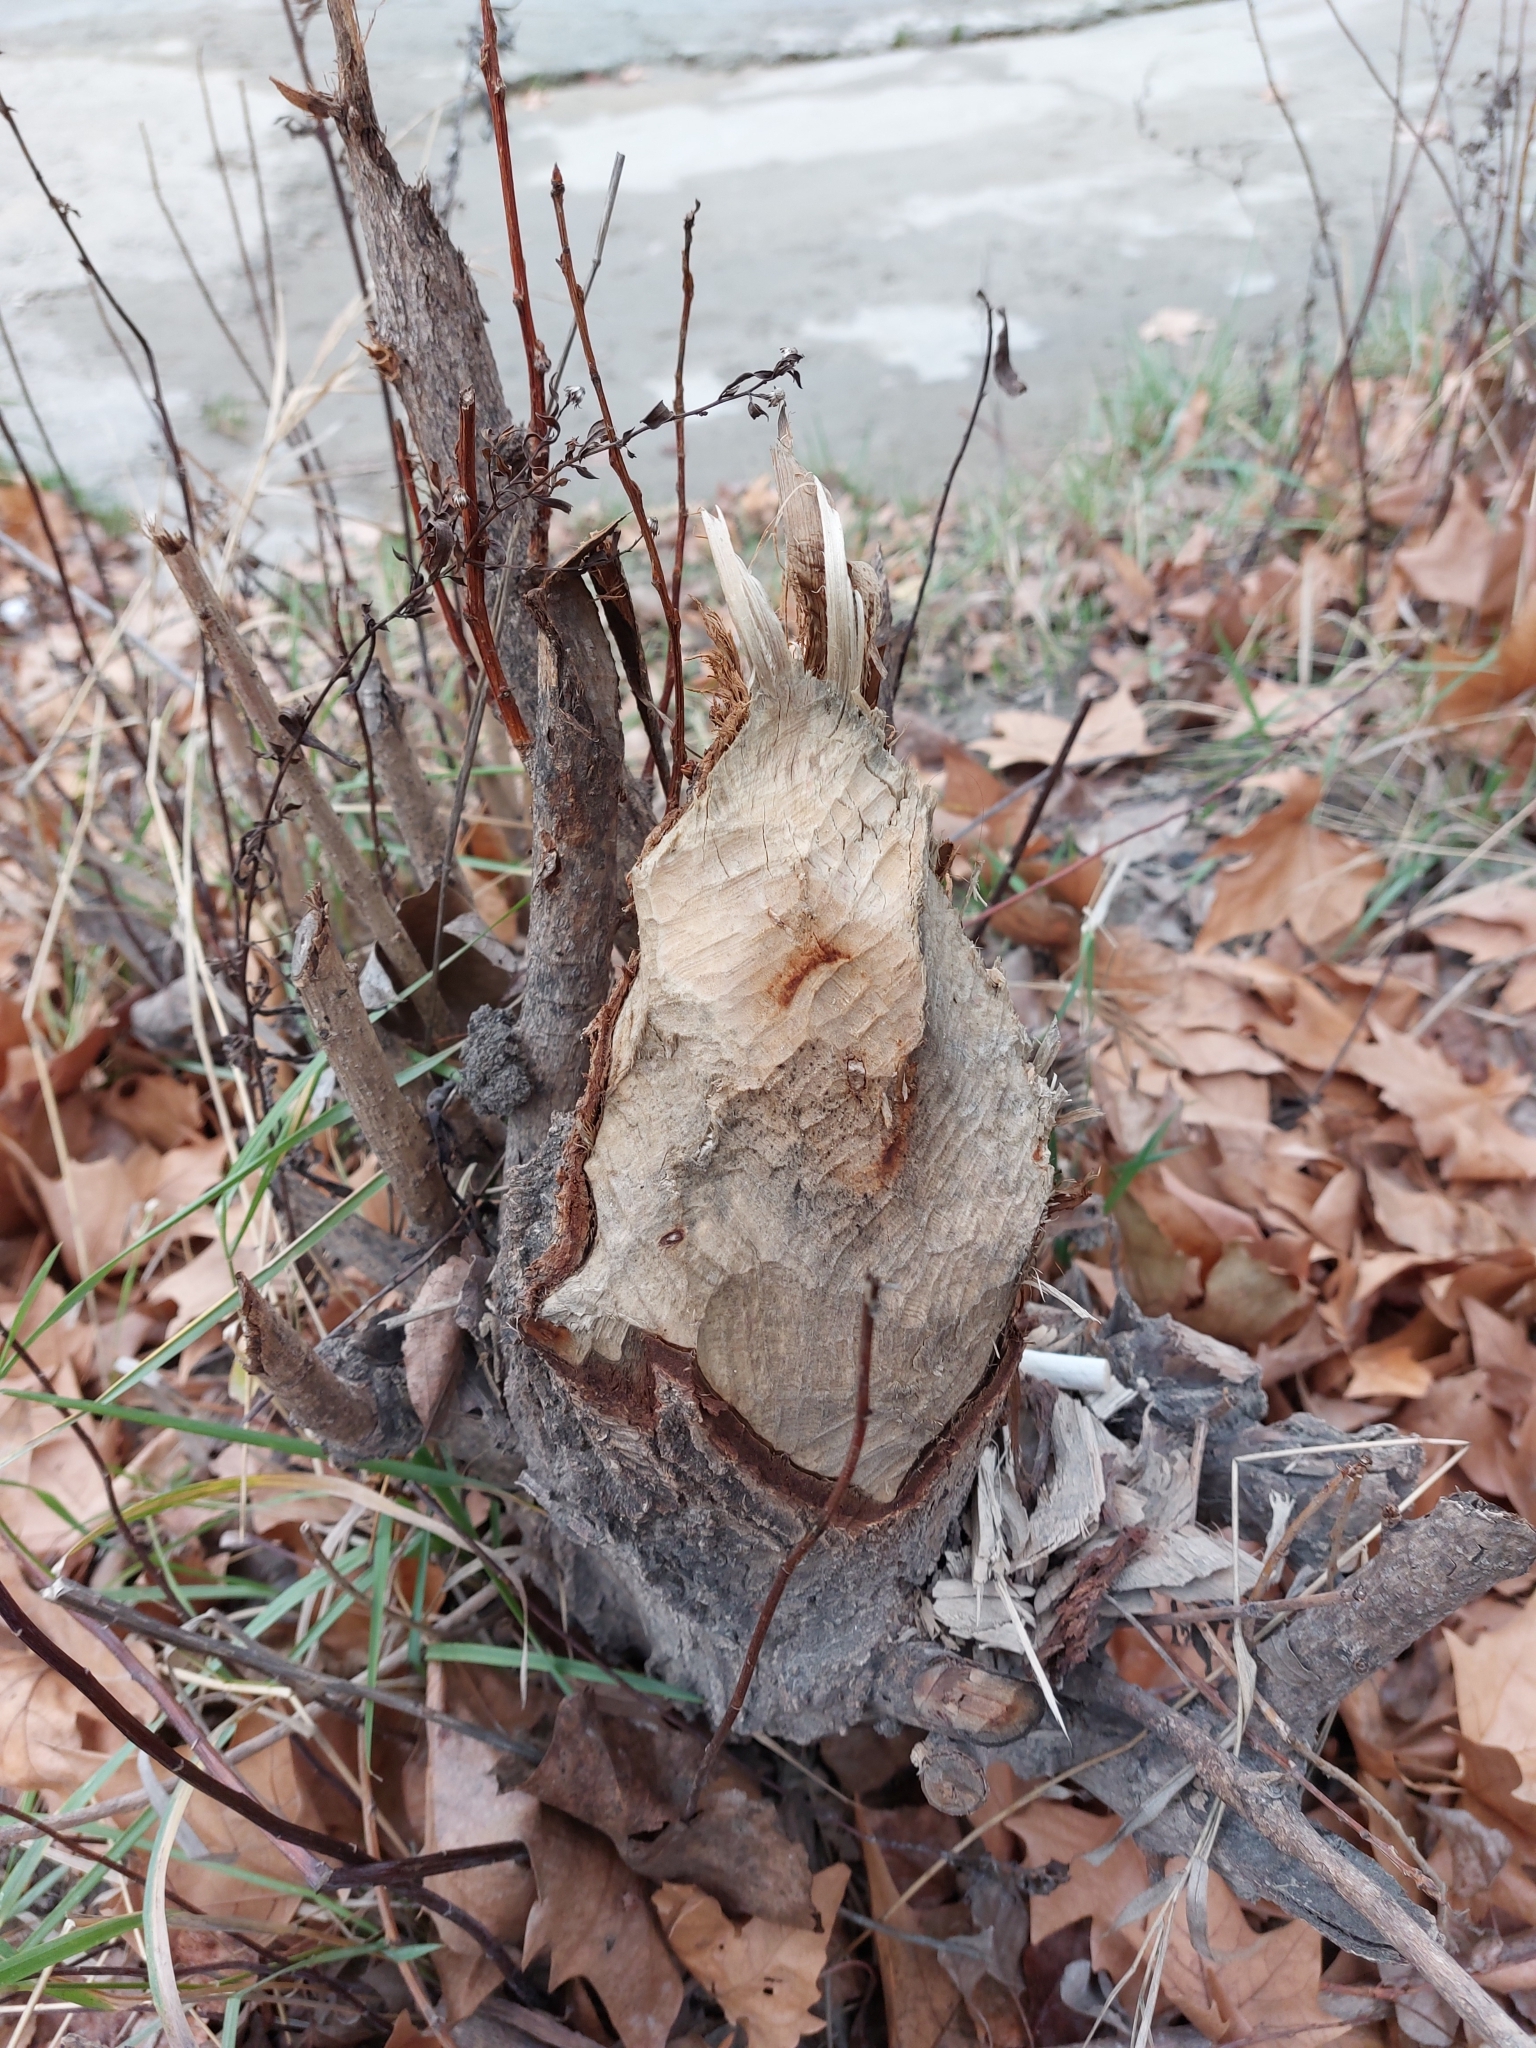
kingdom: Animalia
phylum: Chordata
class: Mammalia
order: Rodentia
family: Castoridae
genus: Castor
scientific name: Castor fiber
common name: Eurasian beaver
